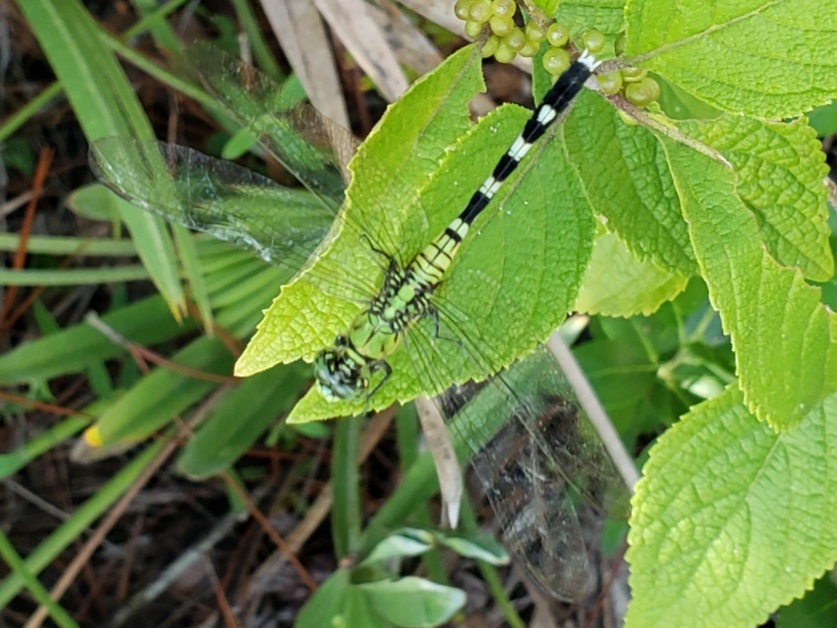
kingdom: Animalia
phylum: Arthropoda
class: Insecta
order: Odonata
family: Libellulidae
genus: Erythemis
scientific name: Erythemis simplicicollis
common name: Eastern pondhawk
